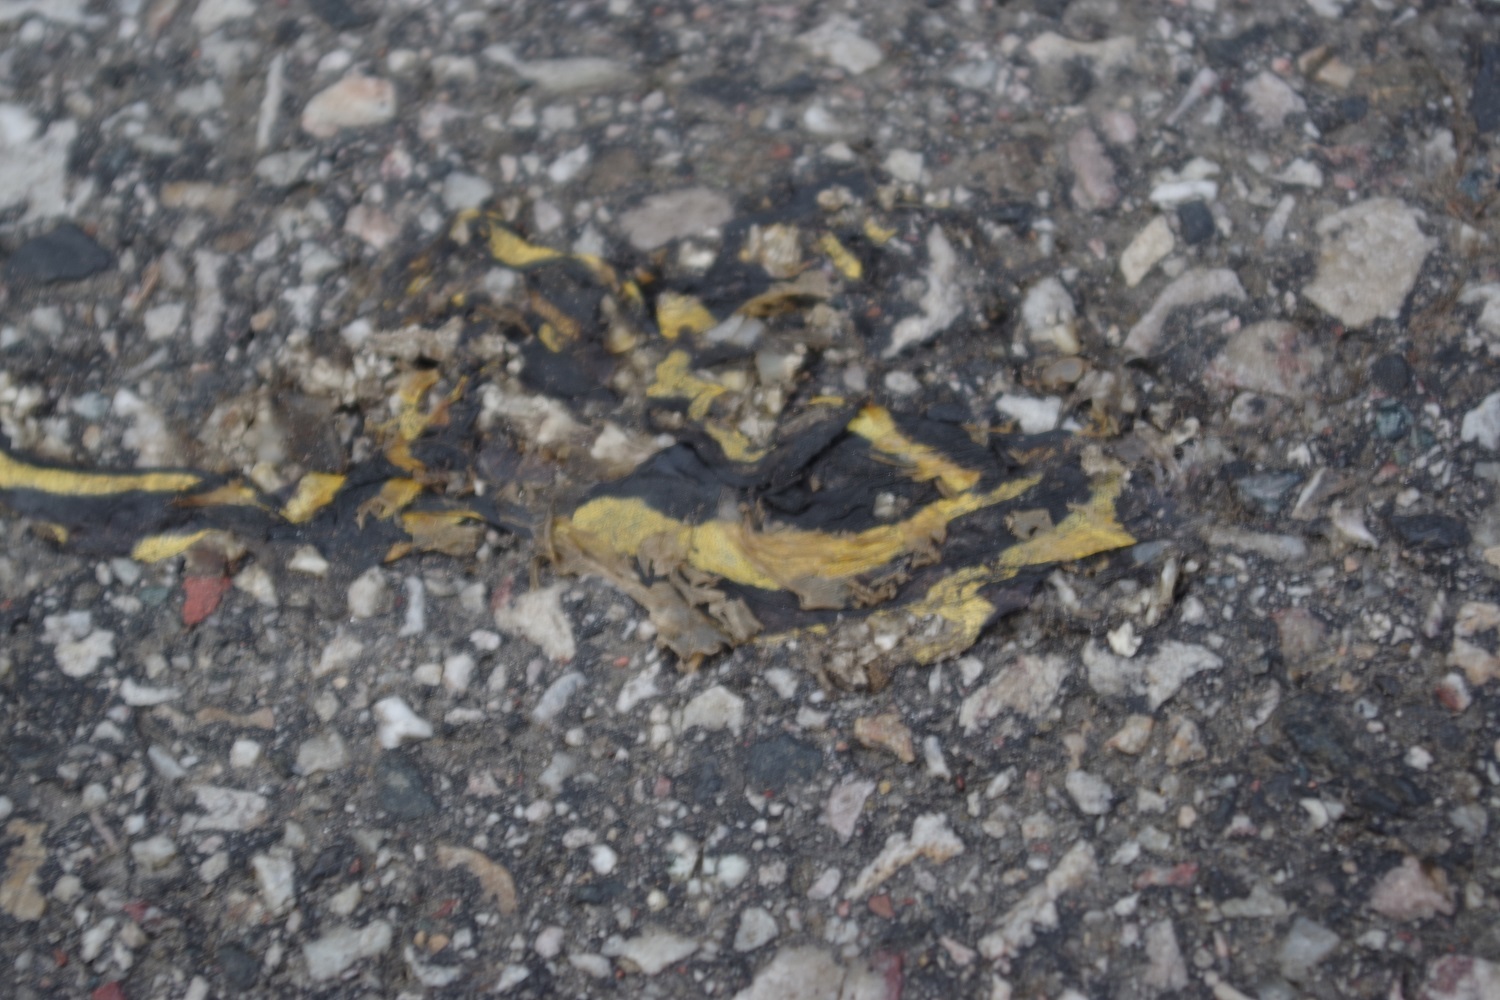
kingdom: Animalia
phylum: Chordata
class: Amphibia
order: Caudata
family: Salamandridae
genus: Salamandra
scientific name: Salamandra salamandra
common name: Fire salamander
